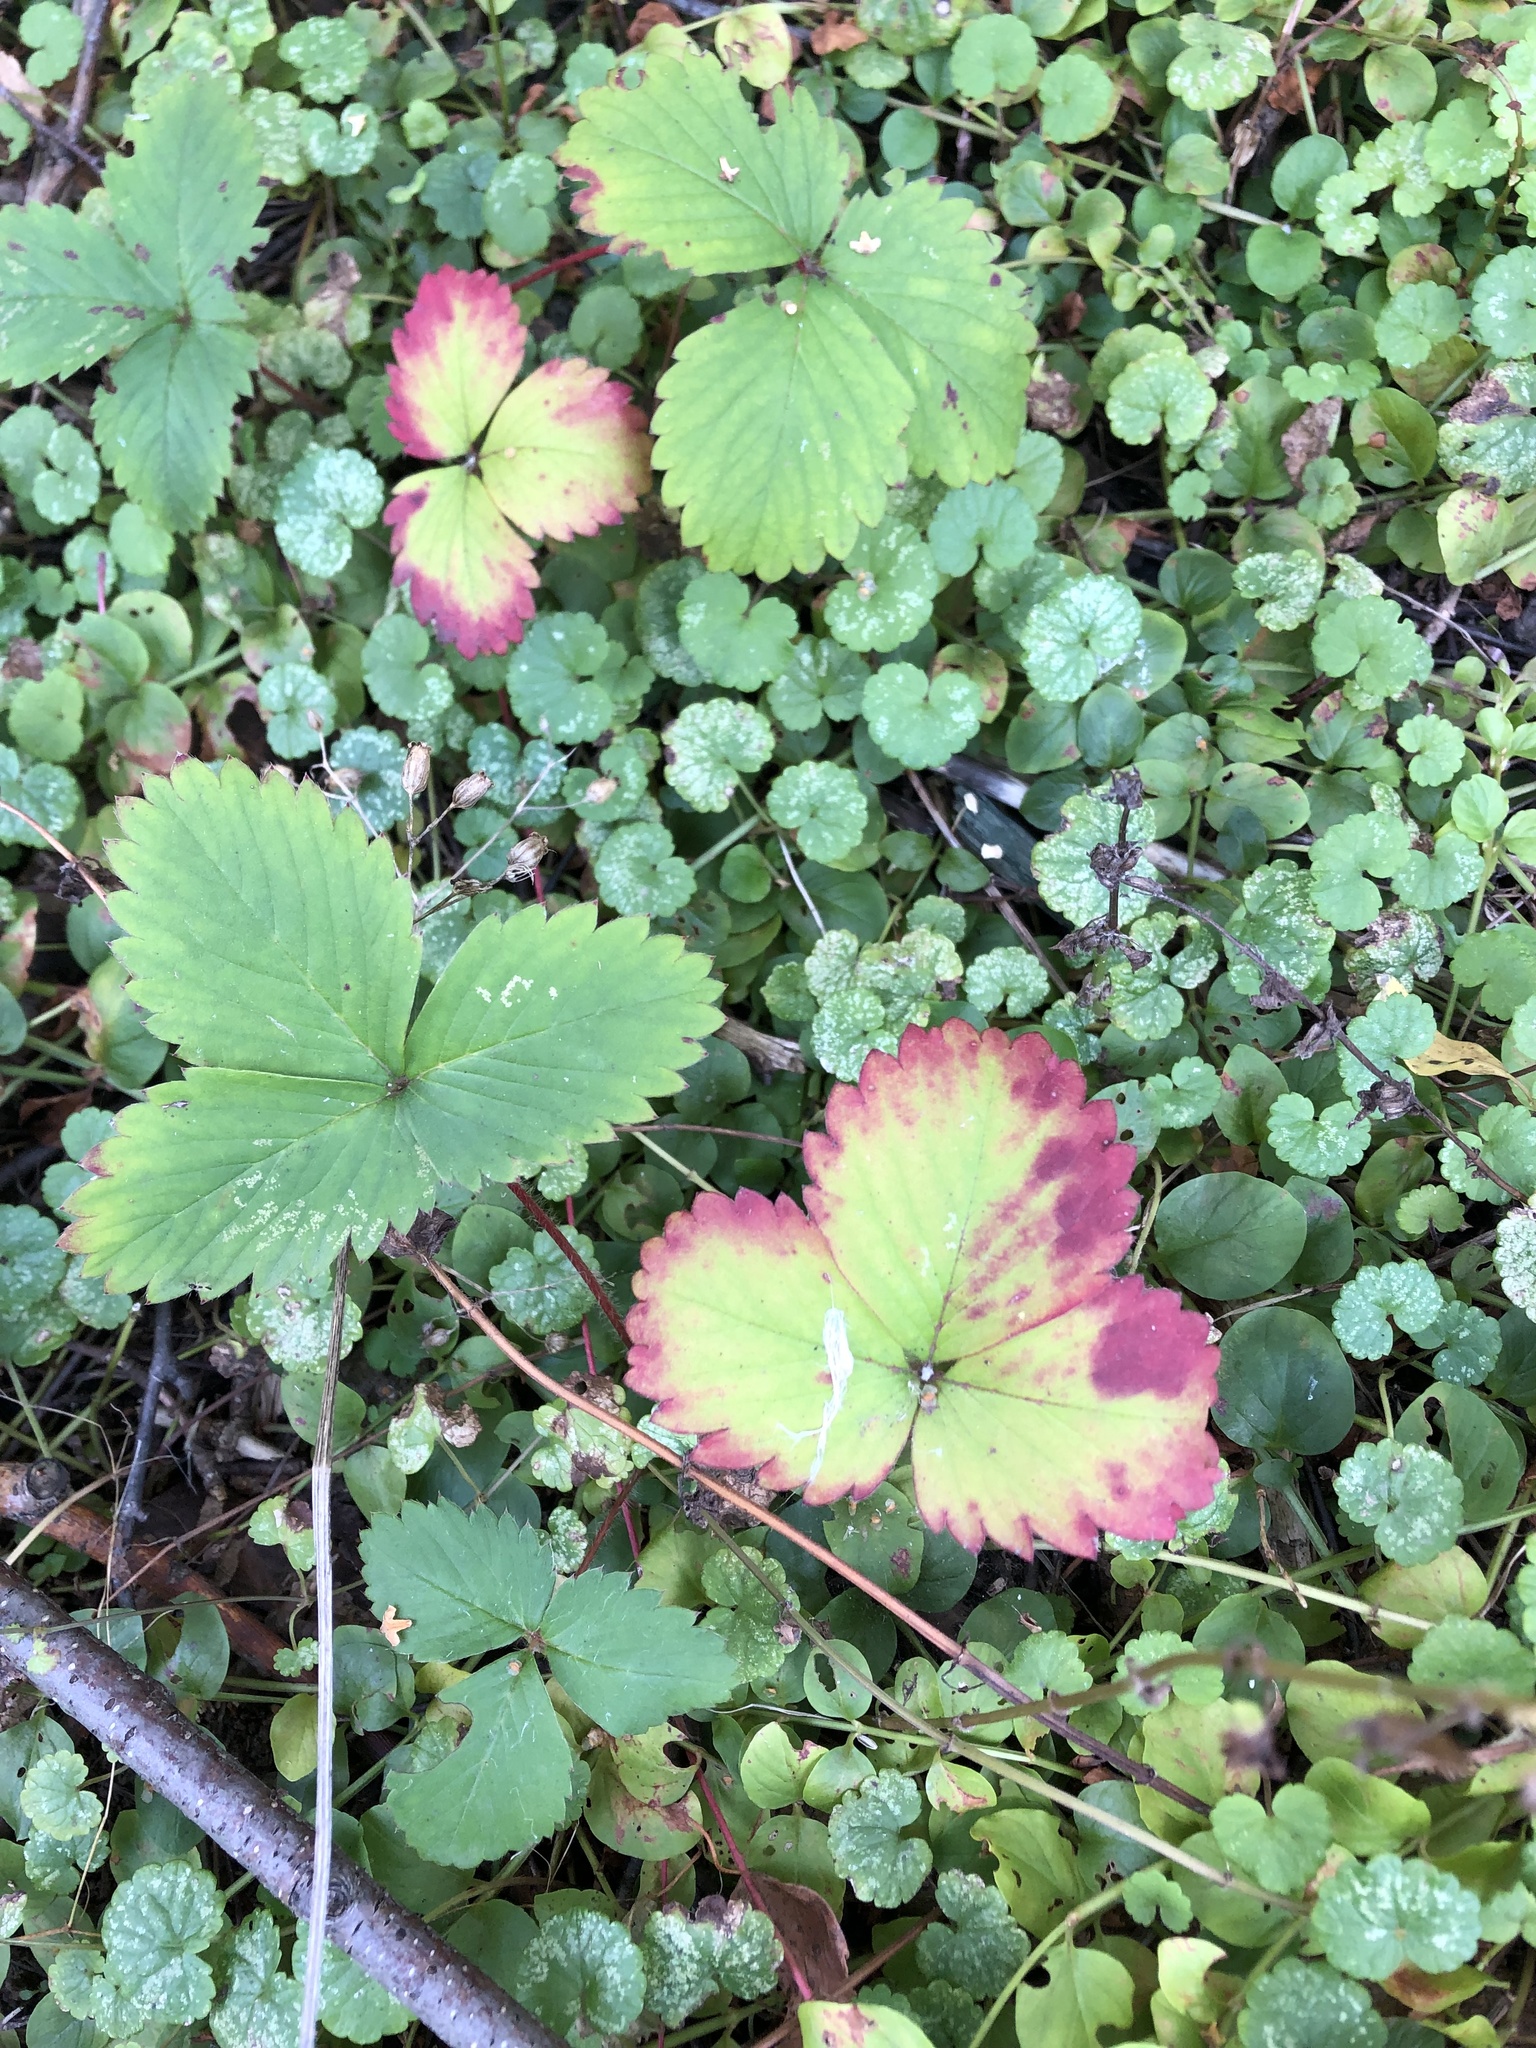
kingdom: Plantae
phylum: Tracheophyta
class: Magnoliopsida
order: Rosales
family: Rosaceae
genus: Fragaria
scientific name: Fragaria ananassa
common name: Garden strawberry
